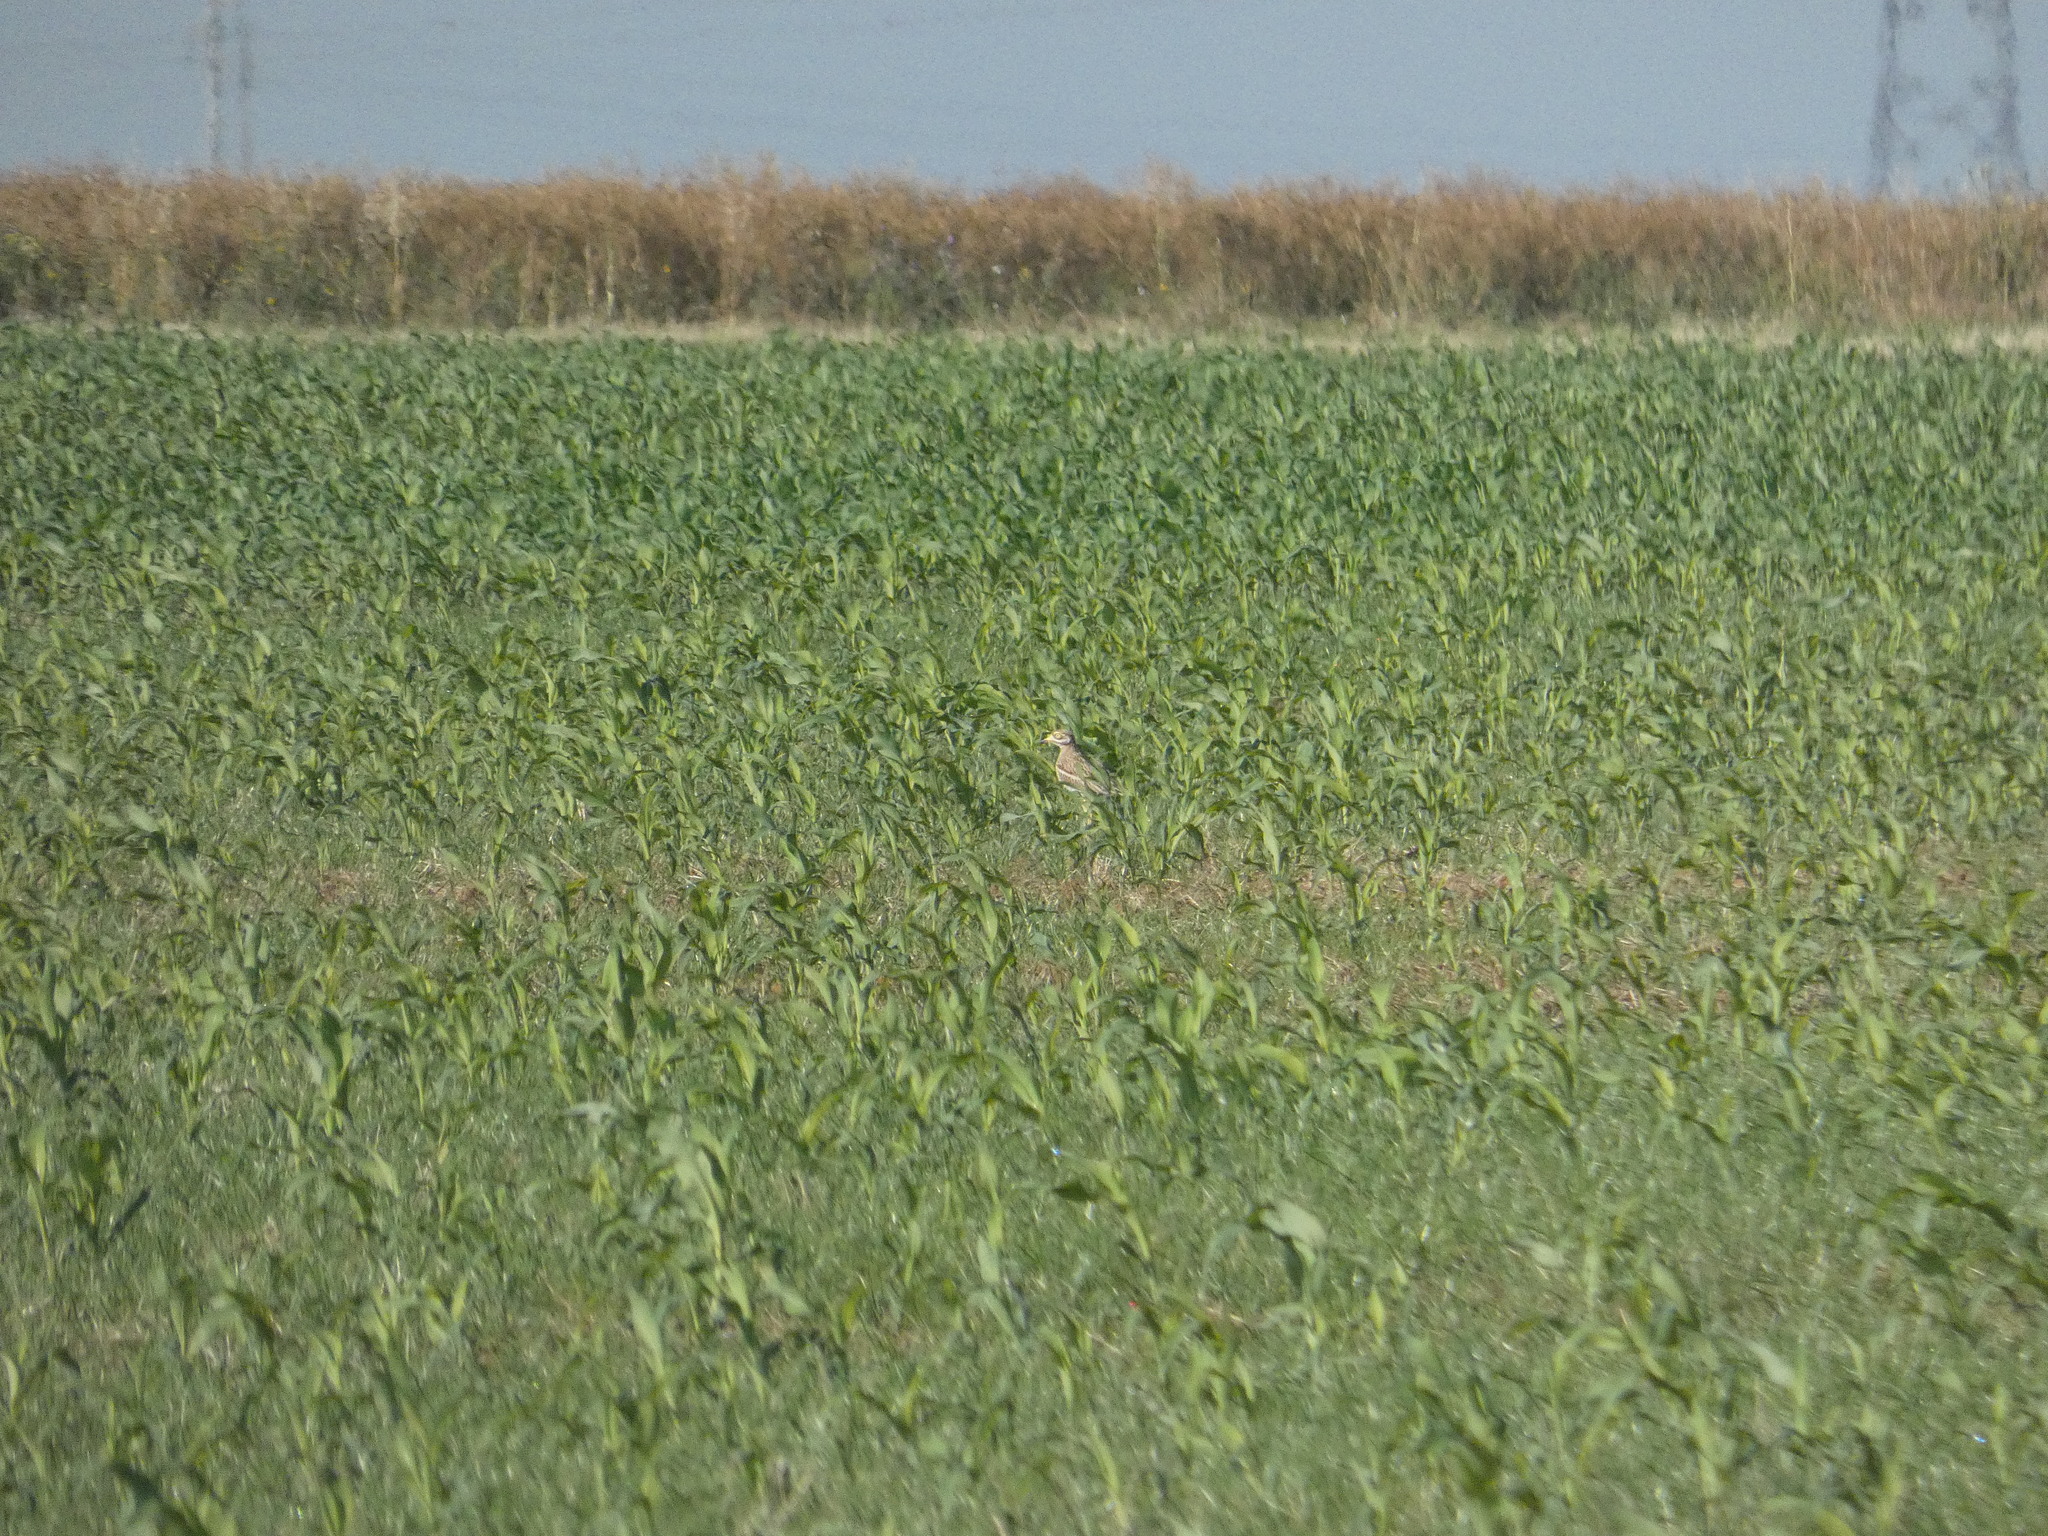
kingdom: Animalia
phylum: Chordata
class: Aves
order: Charadriiformes
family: Burhinidae
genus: Burhinus
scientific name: Burhinus oedicnemus
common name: Eurasian stone-curlew
